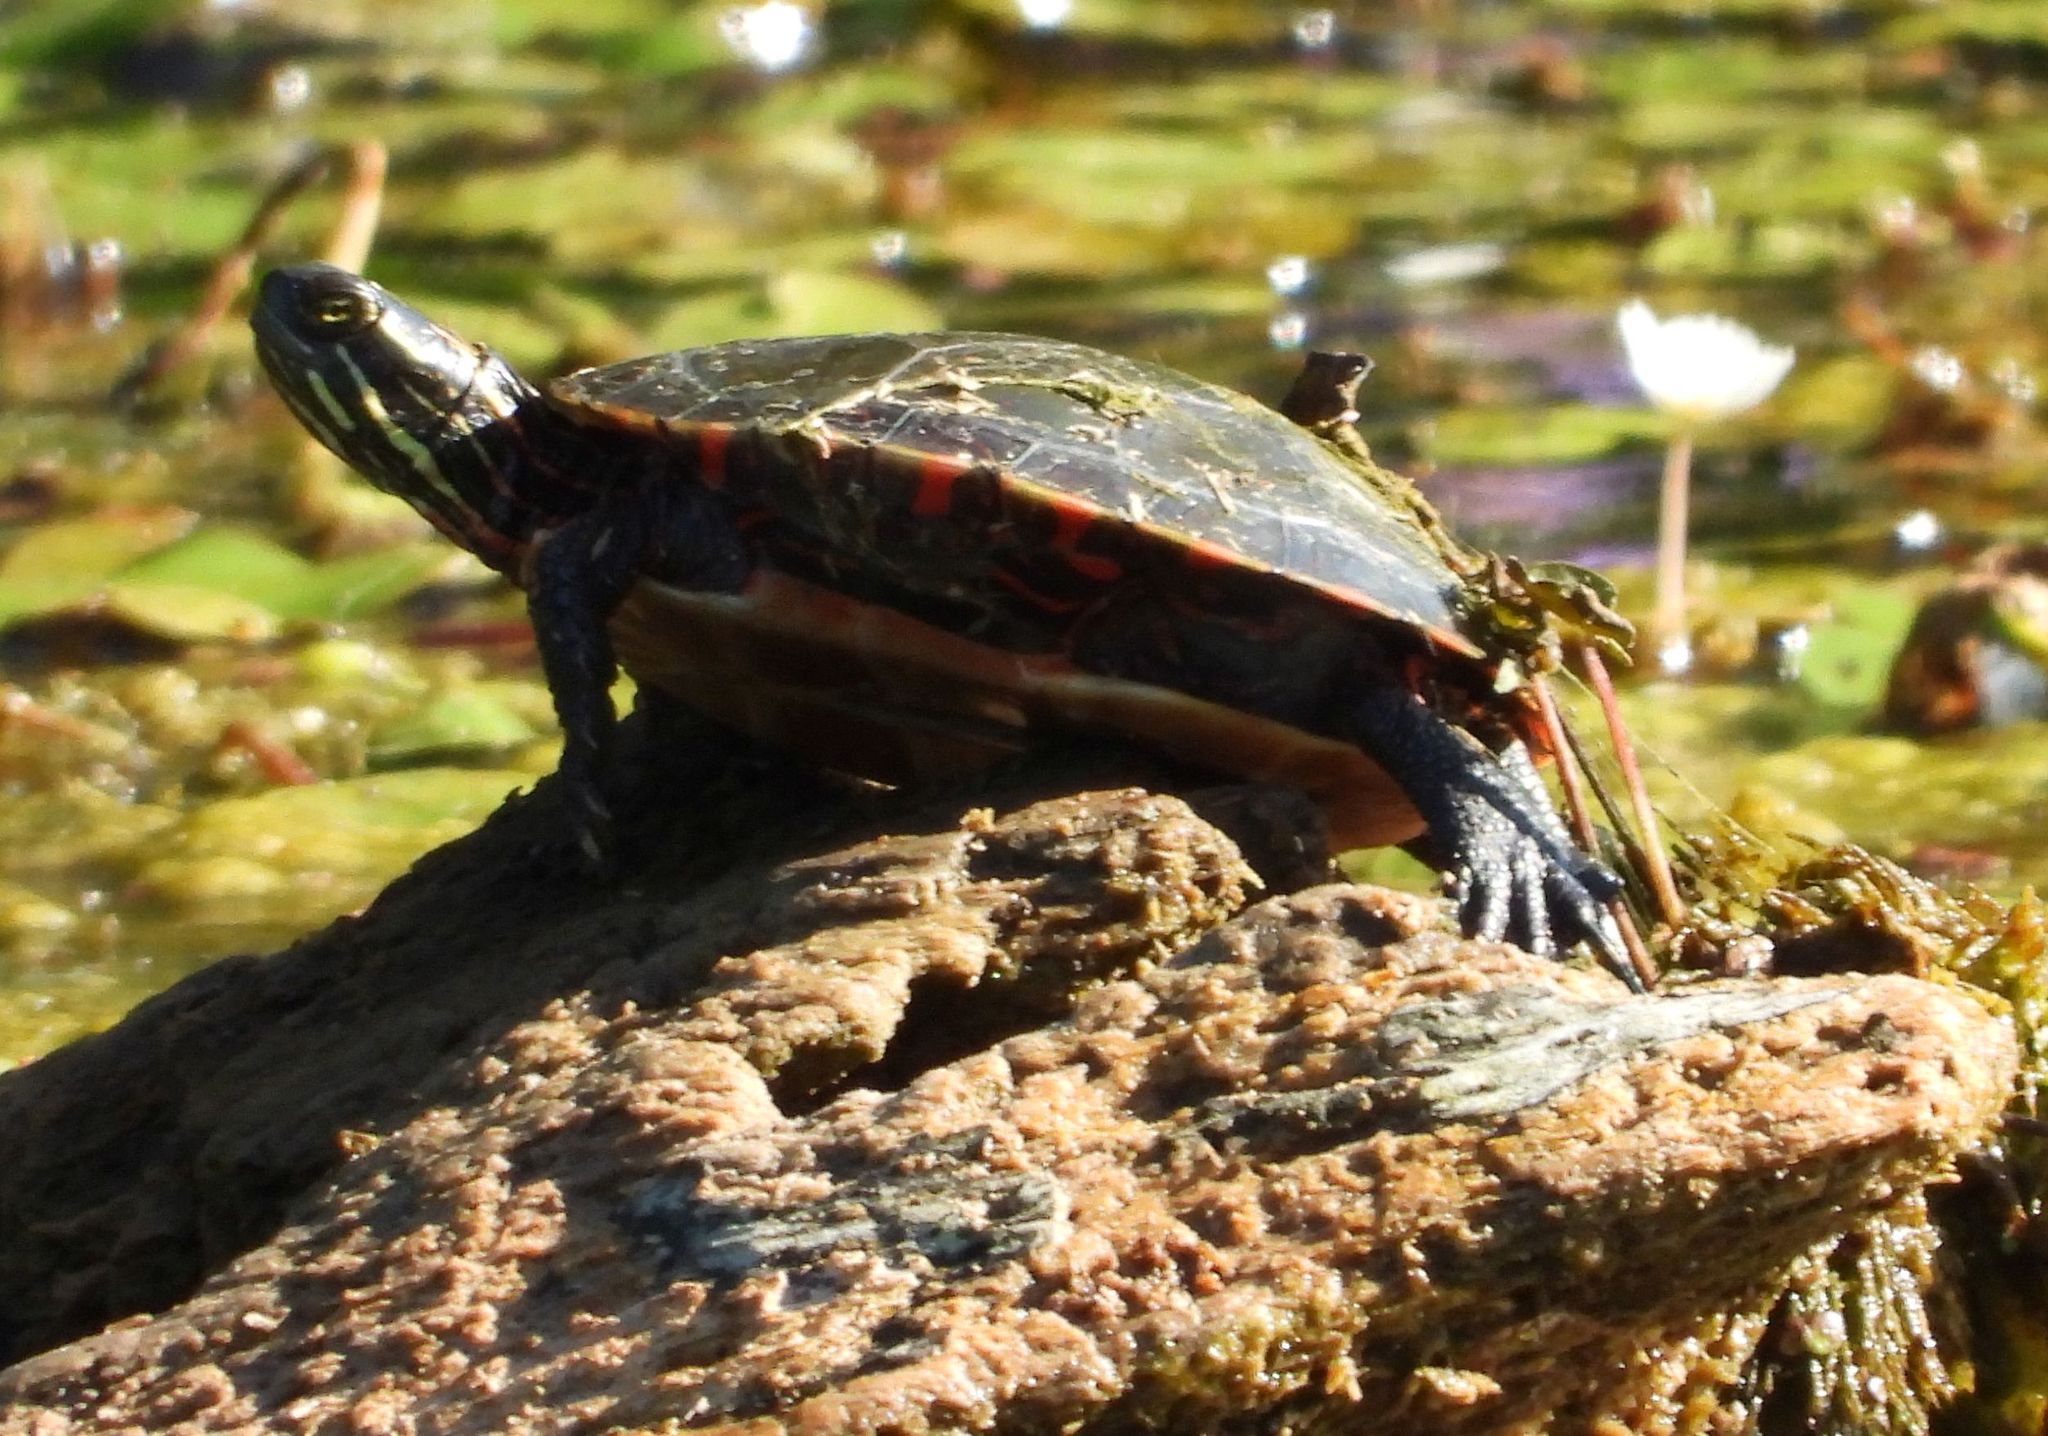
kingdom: Animalia
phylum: Chordata
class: Testudines
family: Emydidae
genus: Chrysemys
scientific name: Chrysemys picta
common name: Painted turtle
